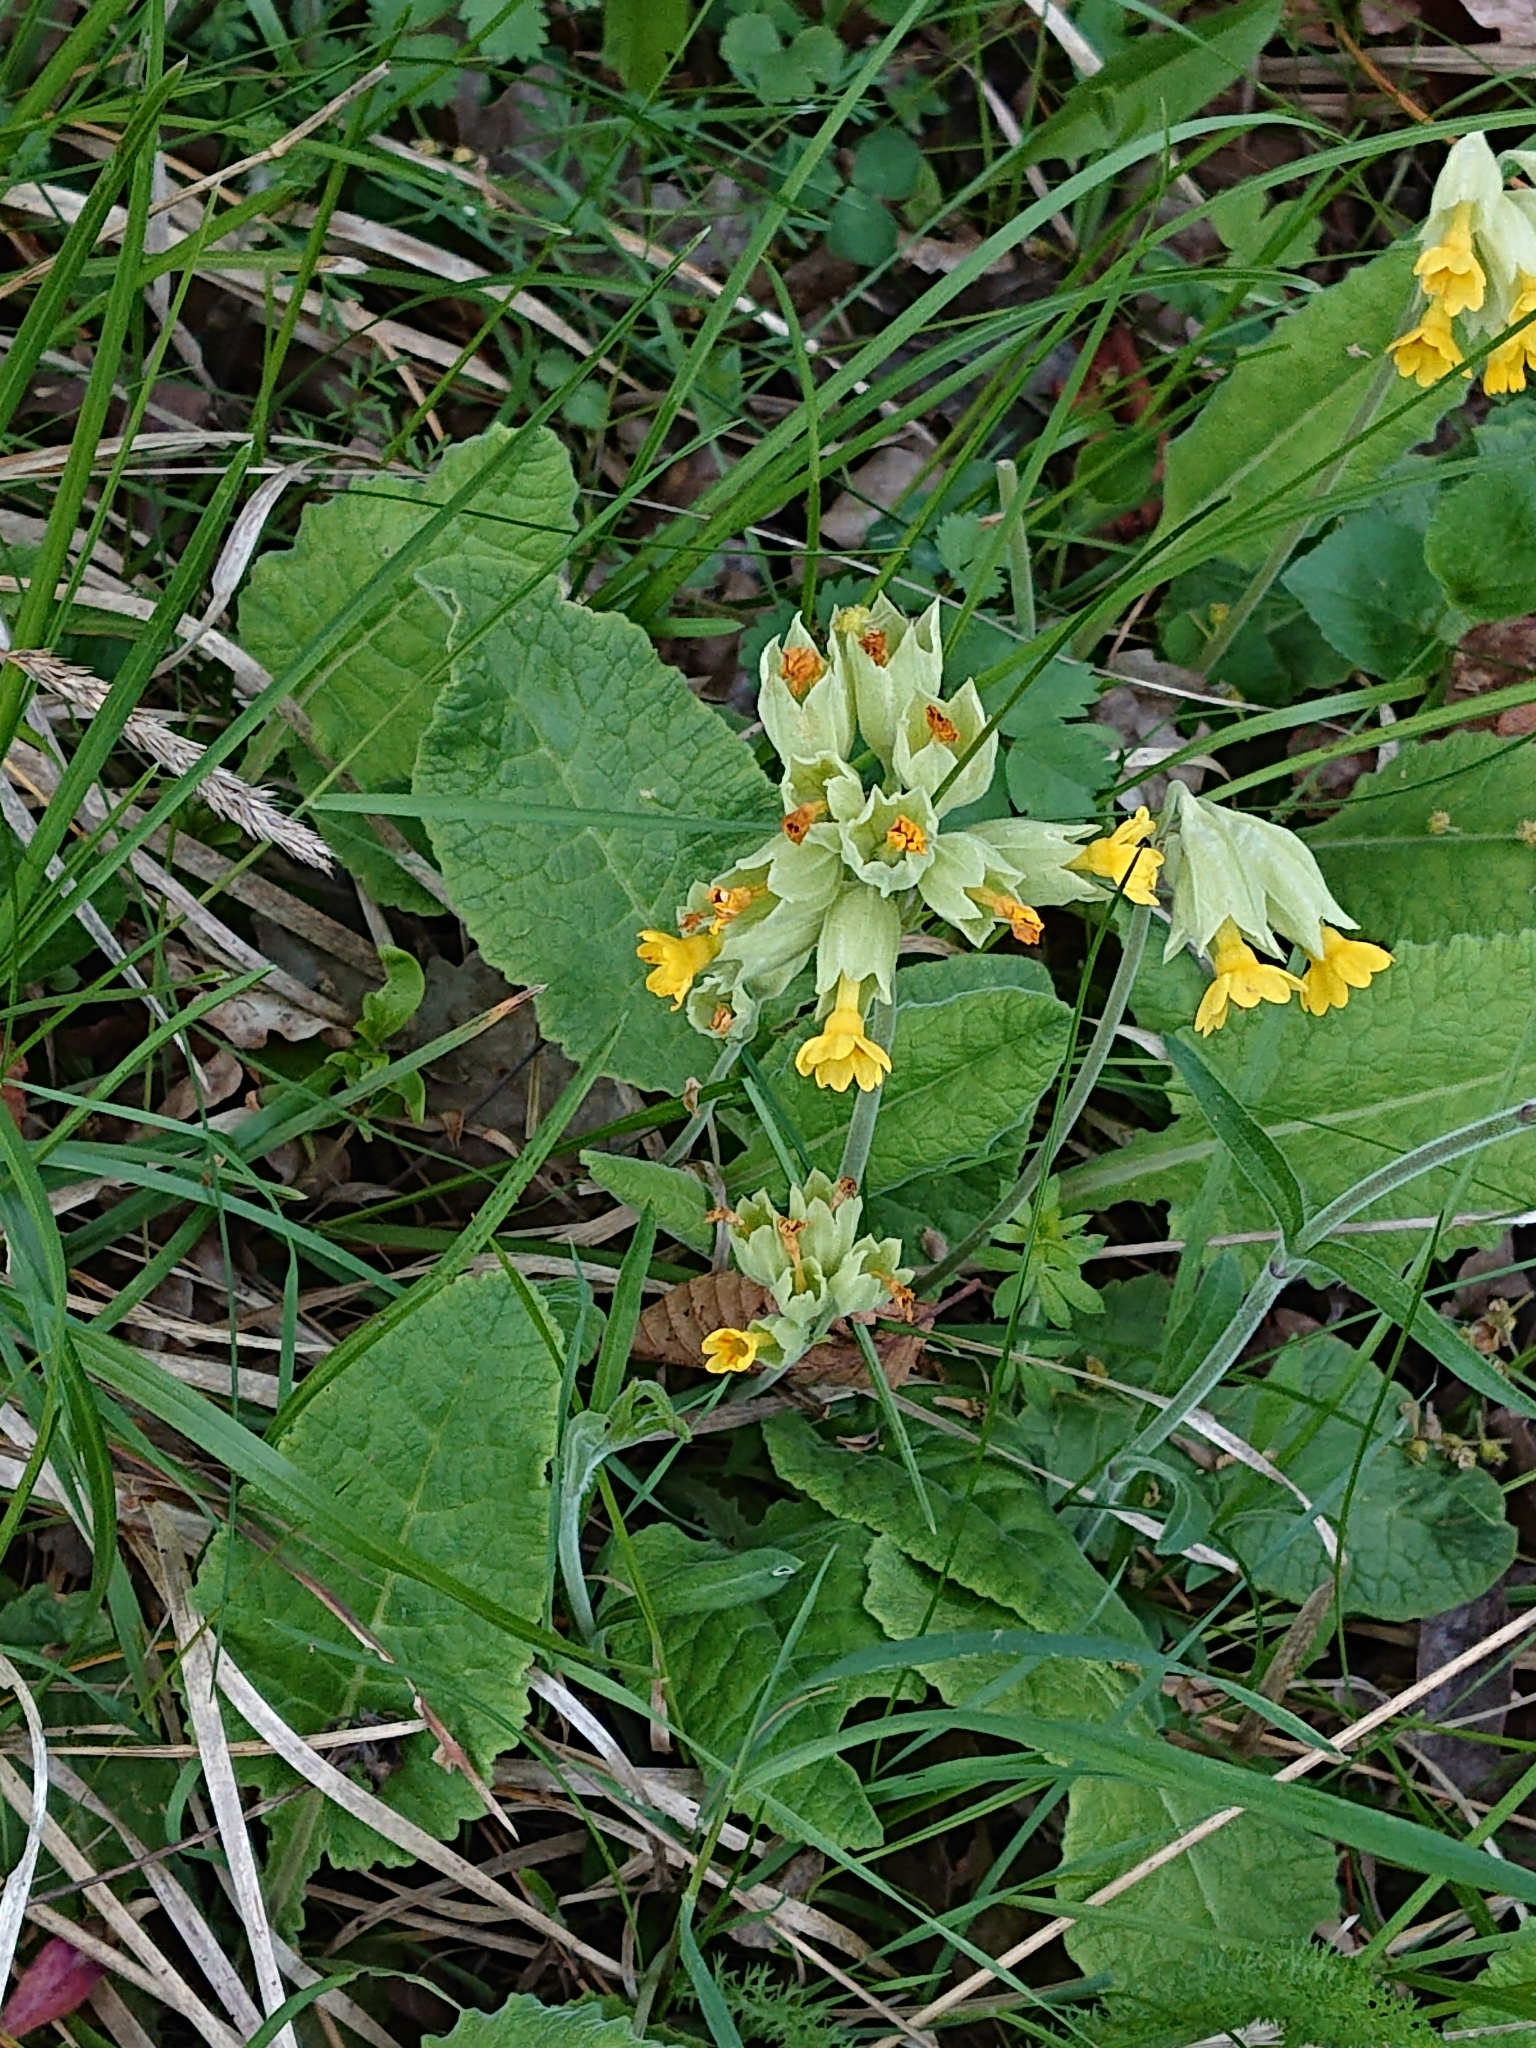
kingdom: Plantae
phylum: Tracheophyta
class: Magnoliopsida
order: Ericales
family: Primulaceae
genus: Primula
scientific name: Primula veris
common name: Cowslip
